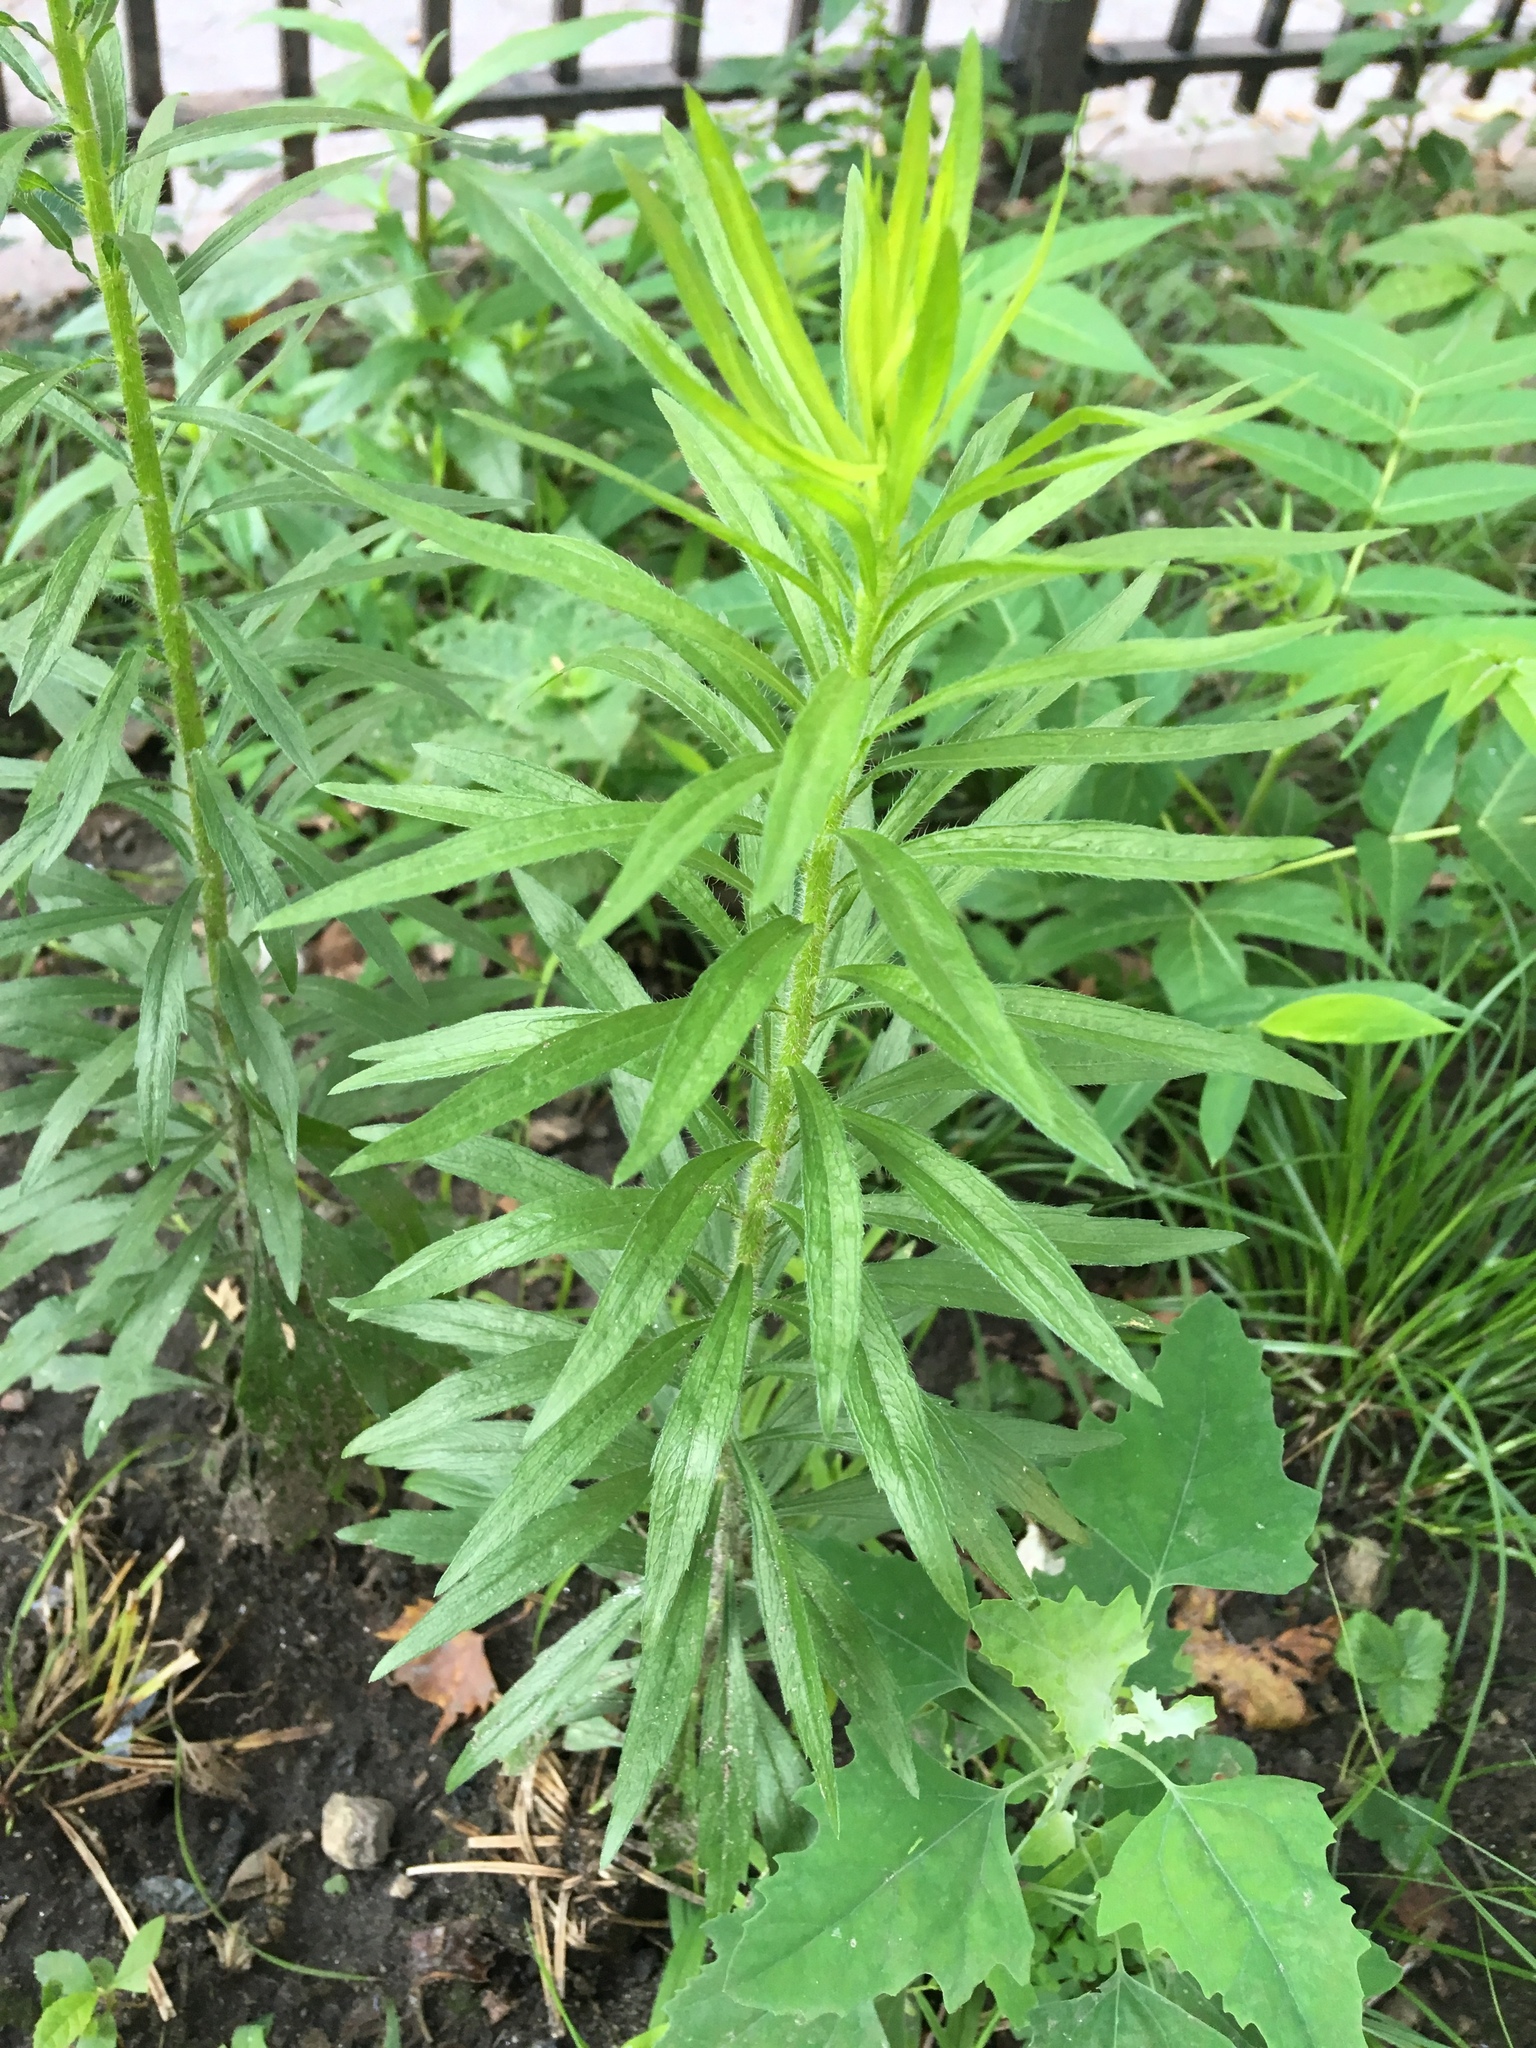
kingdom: Plantae
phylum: Tracheophyta
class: Magnoliopsida
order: Asterales
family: Asteraceae
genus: Erigeron
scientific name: Erigeron canadensis
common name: Canadian fleabane
